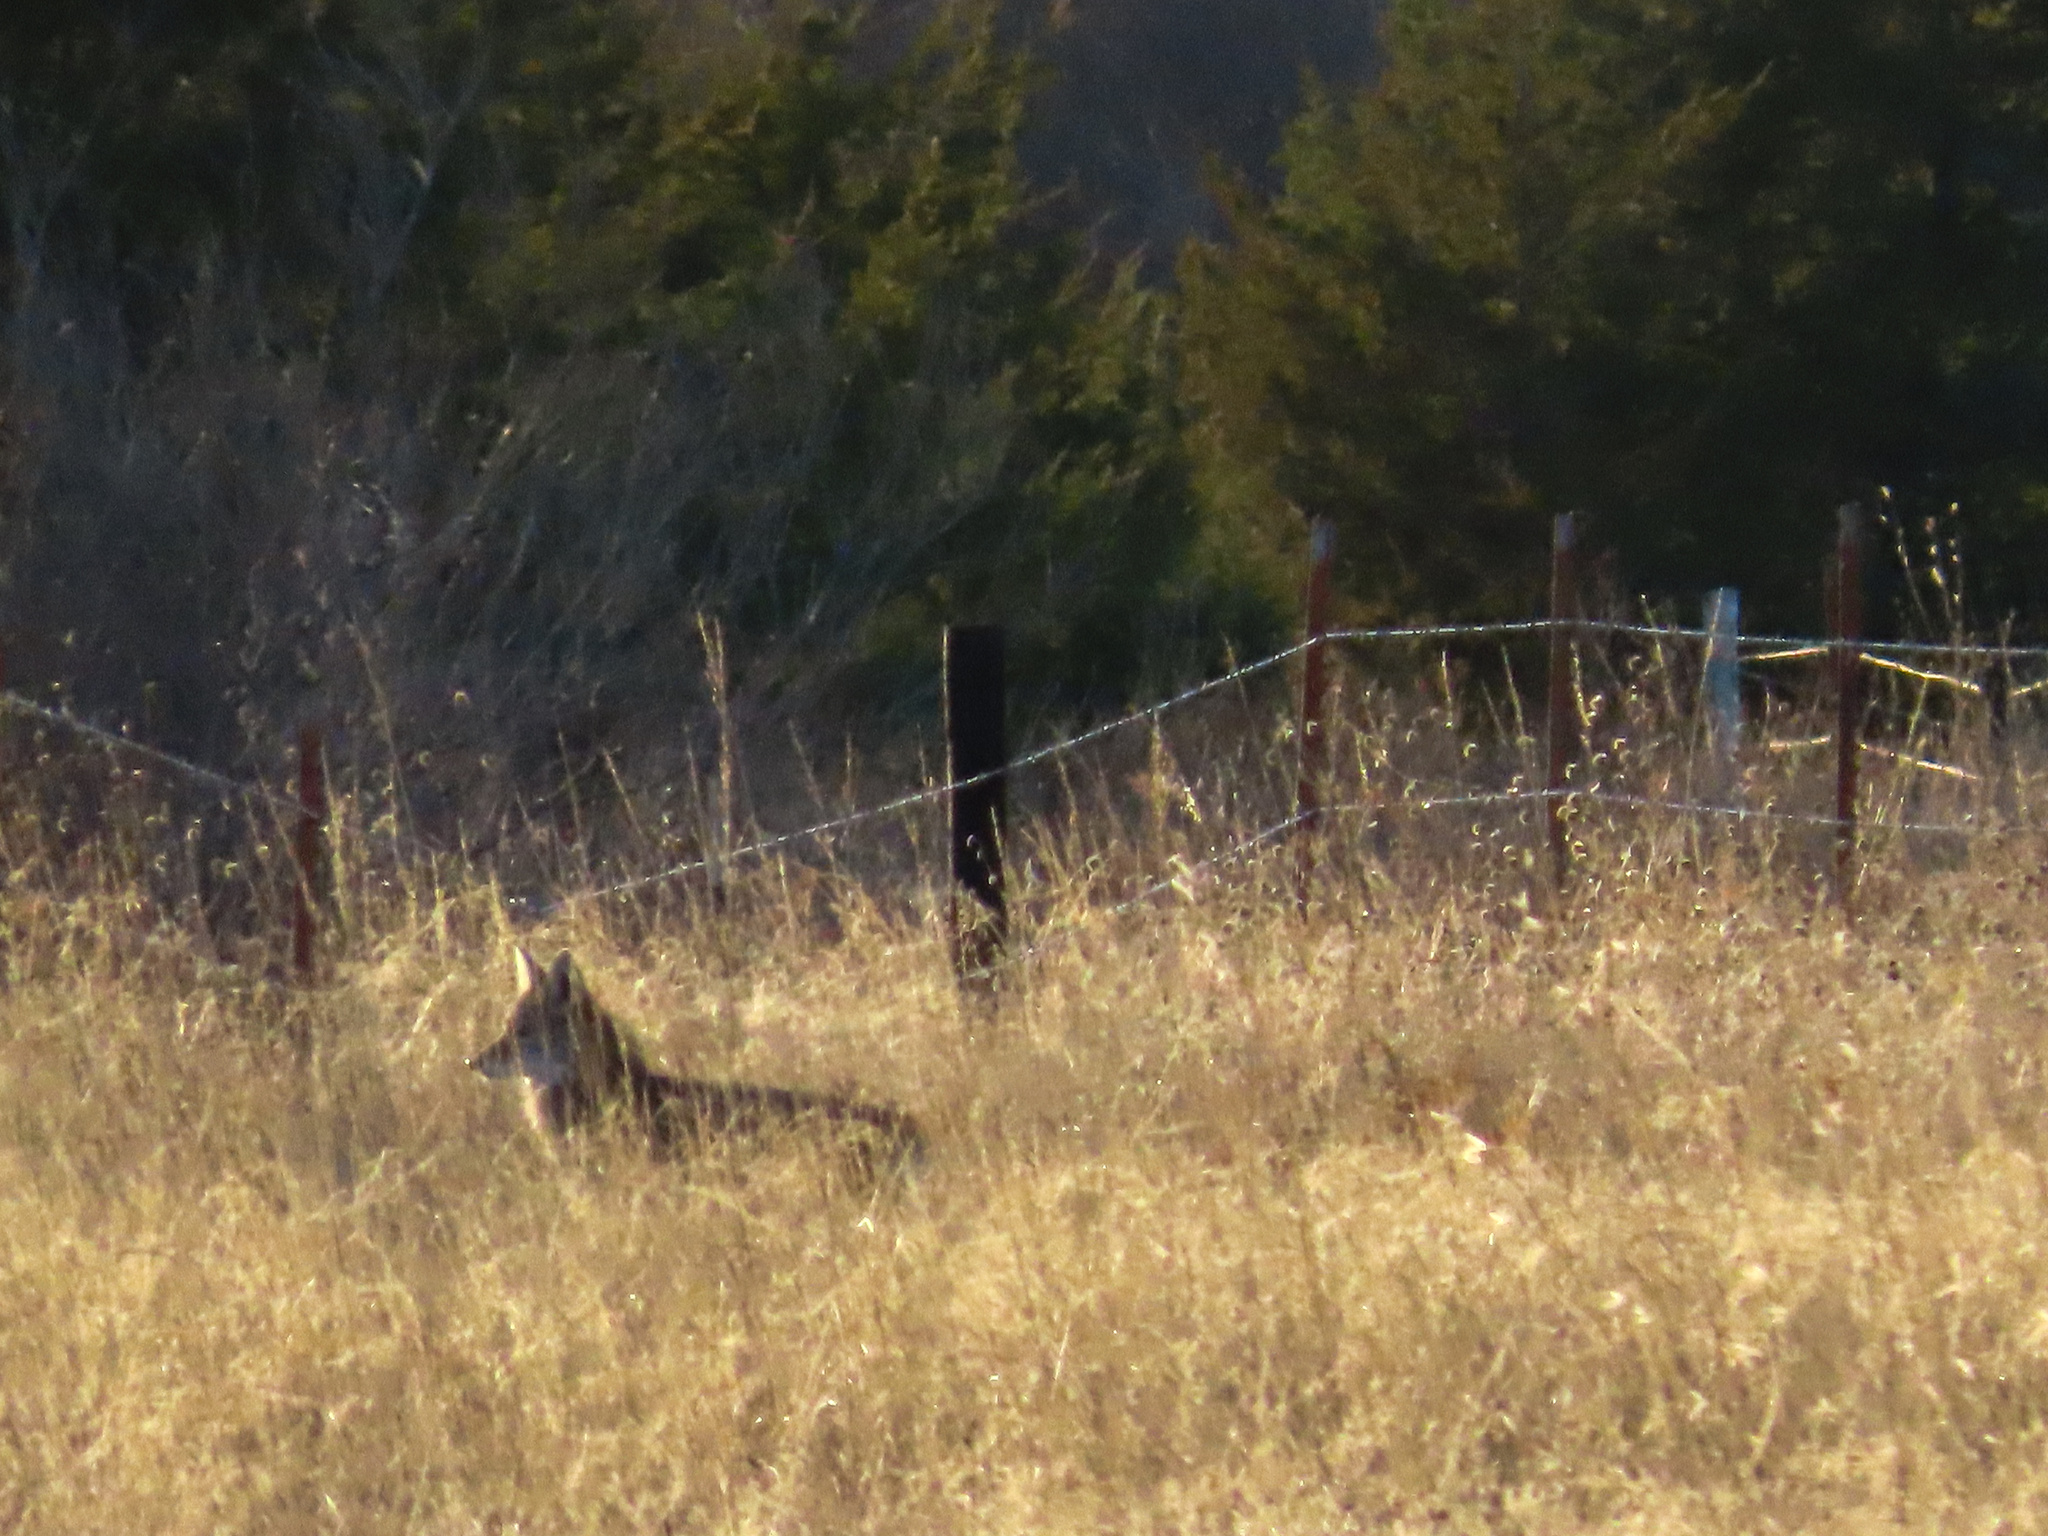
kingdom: Animalia
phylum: Chordata
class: Mammalia
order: Carnivora
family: Canidae
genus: Canis
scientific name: Canis latrans
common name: Coyote
